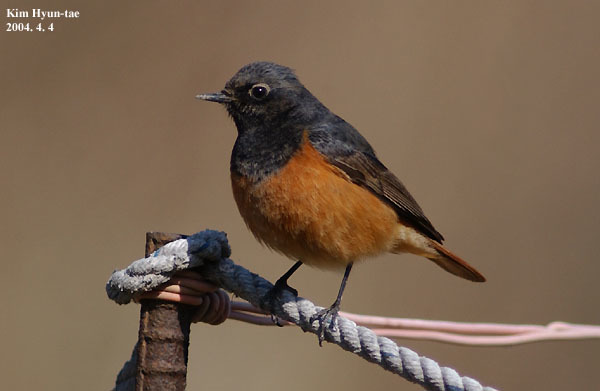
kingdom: Animalia
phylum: Chordata
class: Aves
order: Passeriformes
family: Muscicapidae
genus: Phoenicurus
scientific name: Phoenicurus ochruros
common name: Black redstart
